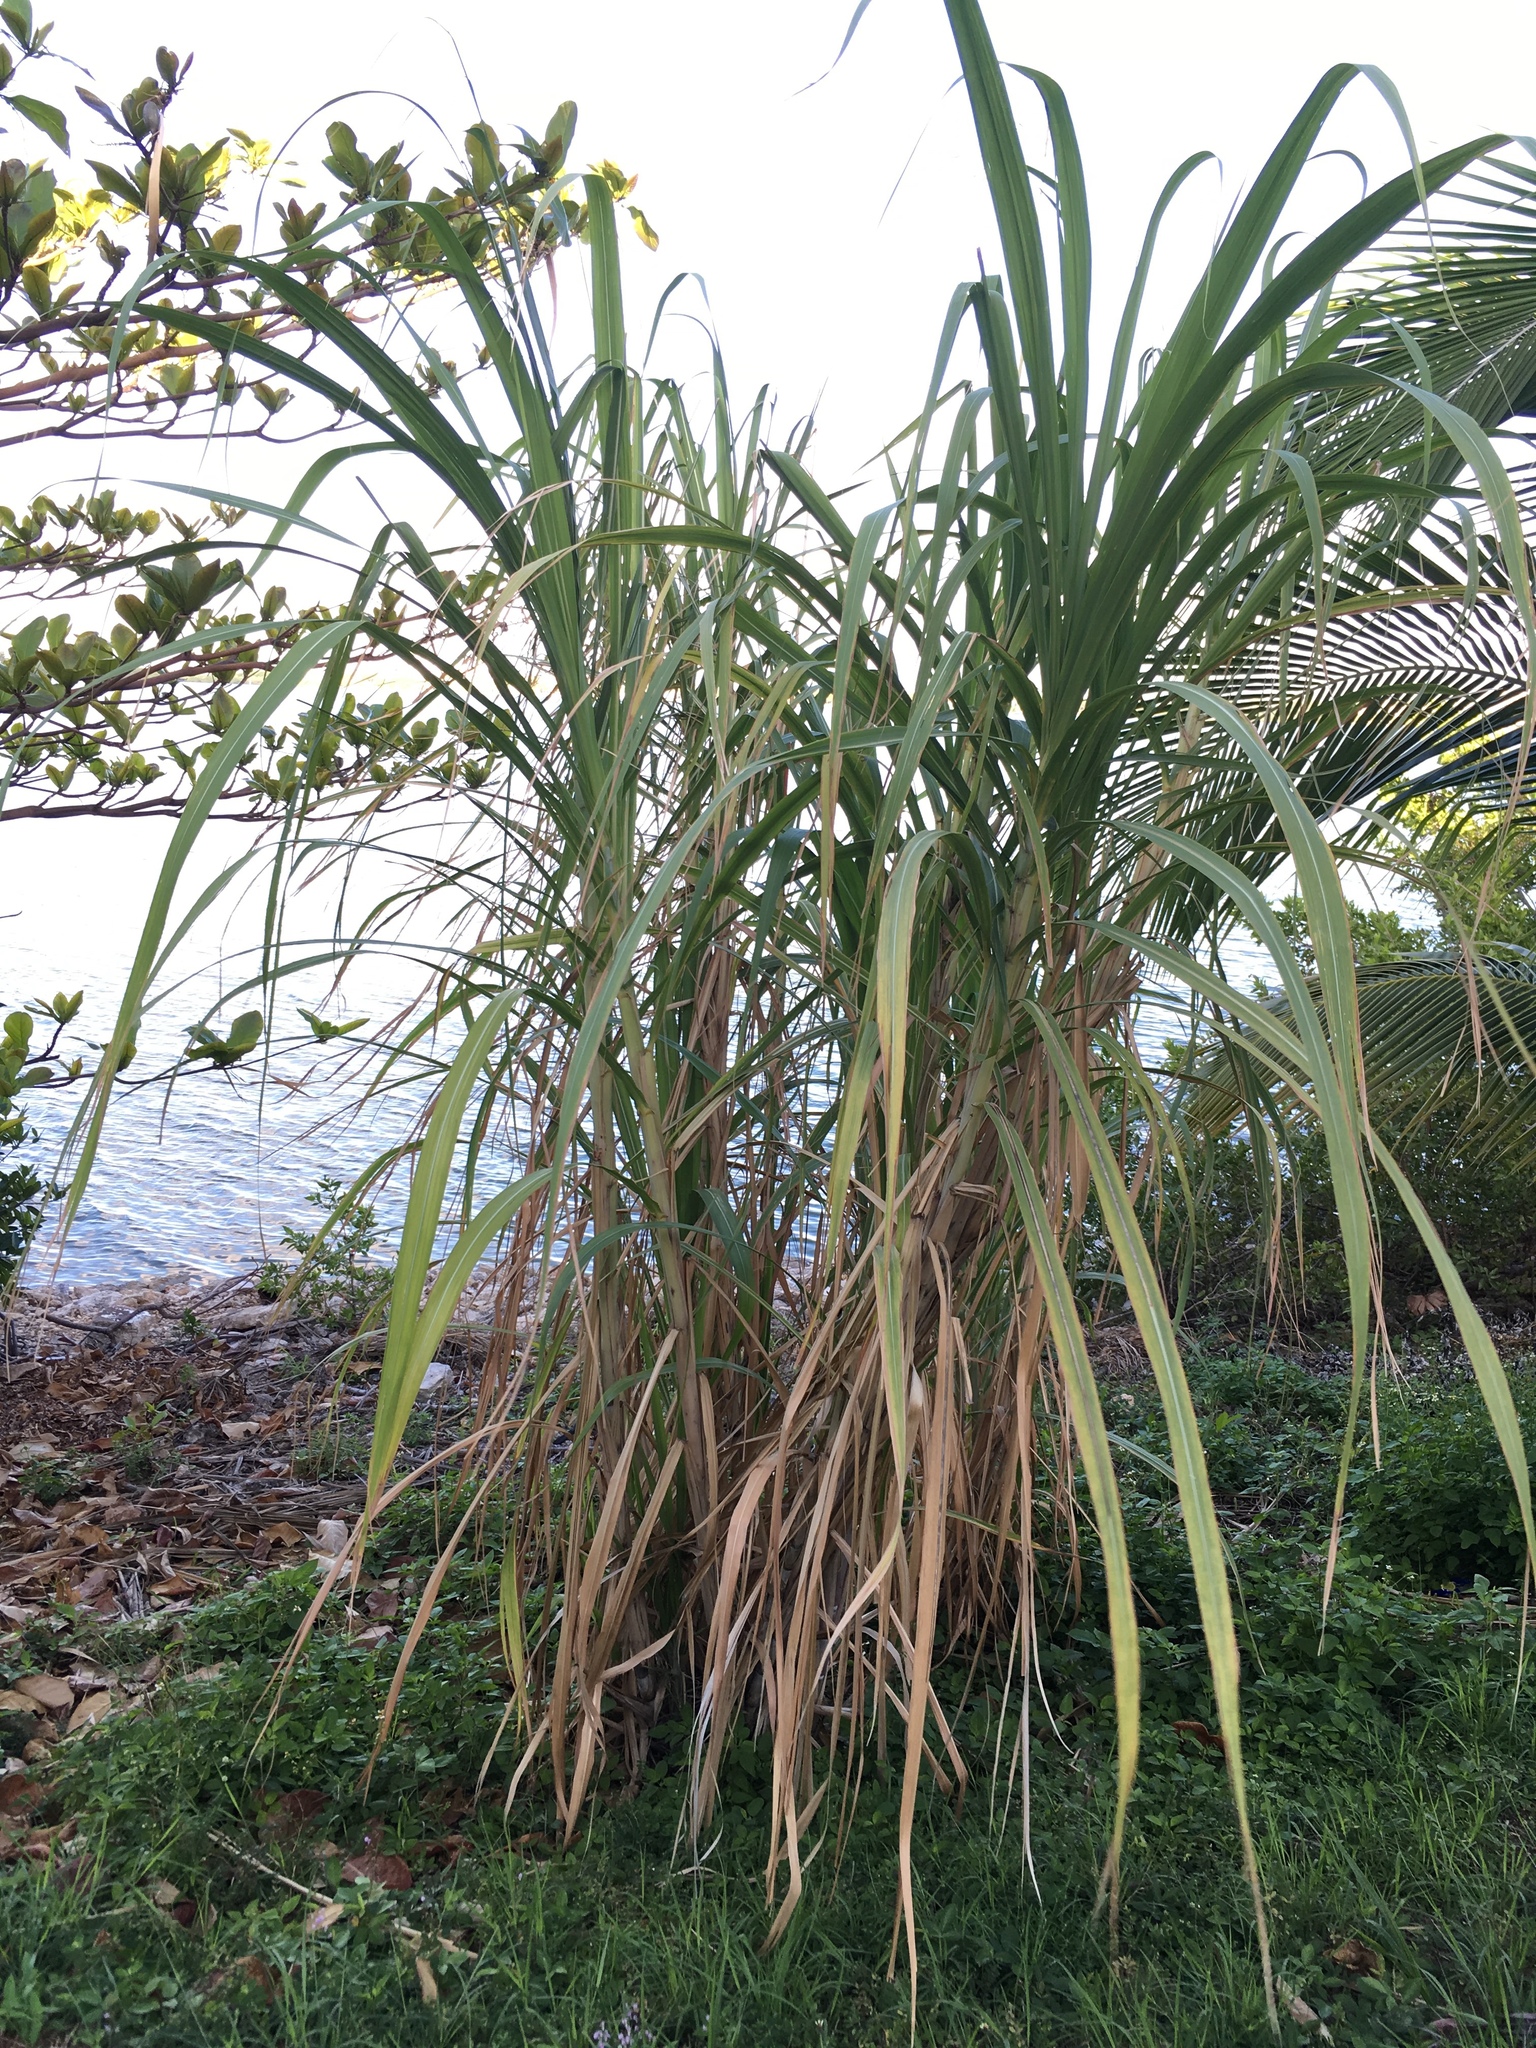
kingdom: Plantae
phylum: Tracheophyta
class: Liliopsida
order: Poales
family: Poaceae
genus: Arundo
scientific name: Arundo donax
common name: Giant reed
